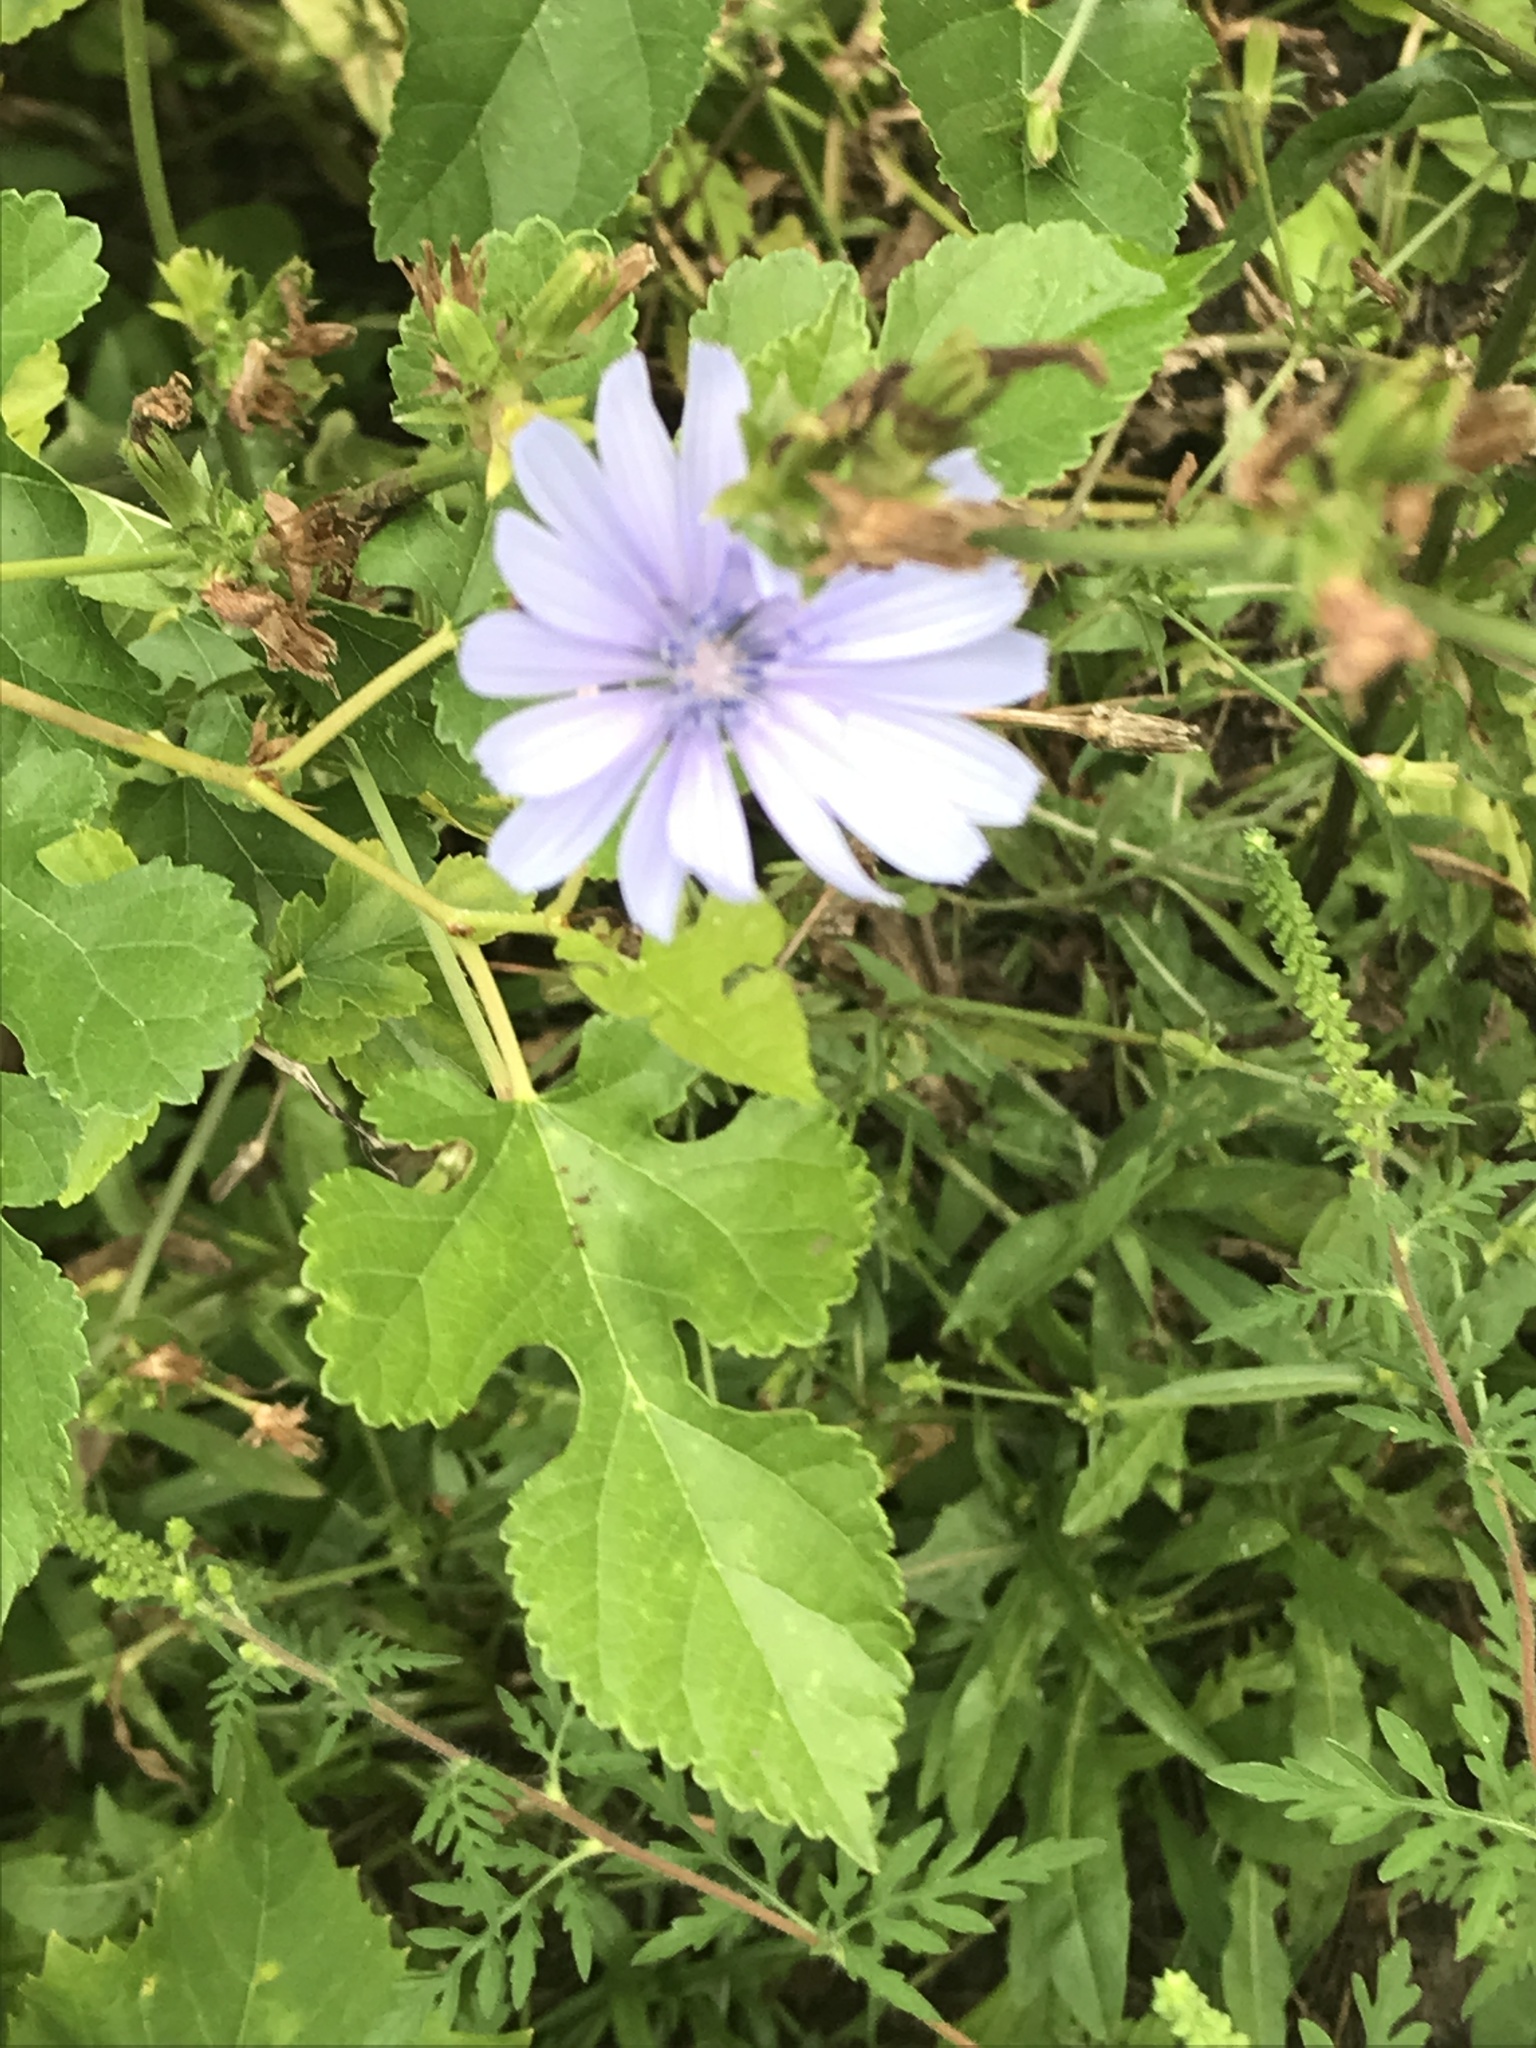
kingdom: Plantae
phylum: Tracheophyta
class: Magnoliopsida
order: Asterales
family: Asteraceae
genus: Cichorium
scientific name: Cichorium intybus
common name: Chicory
